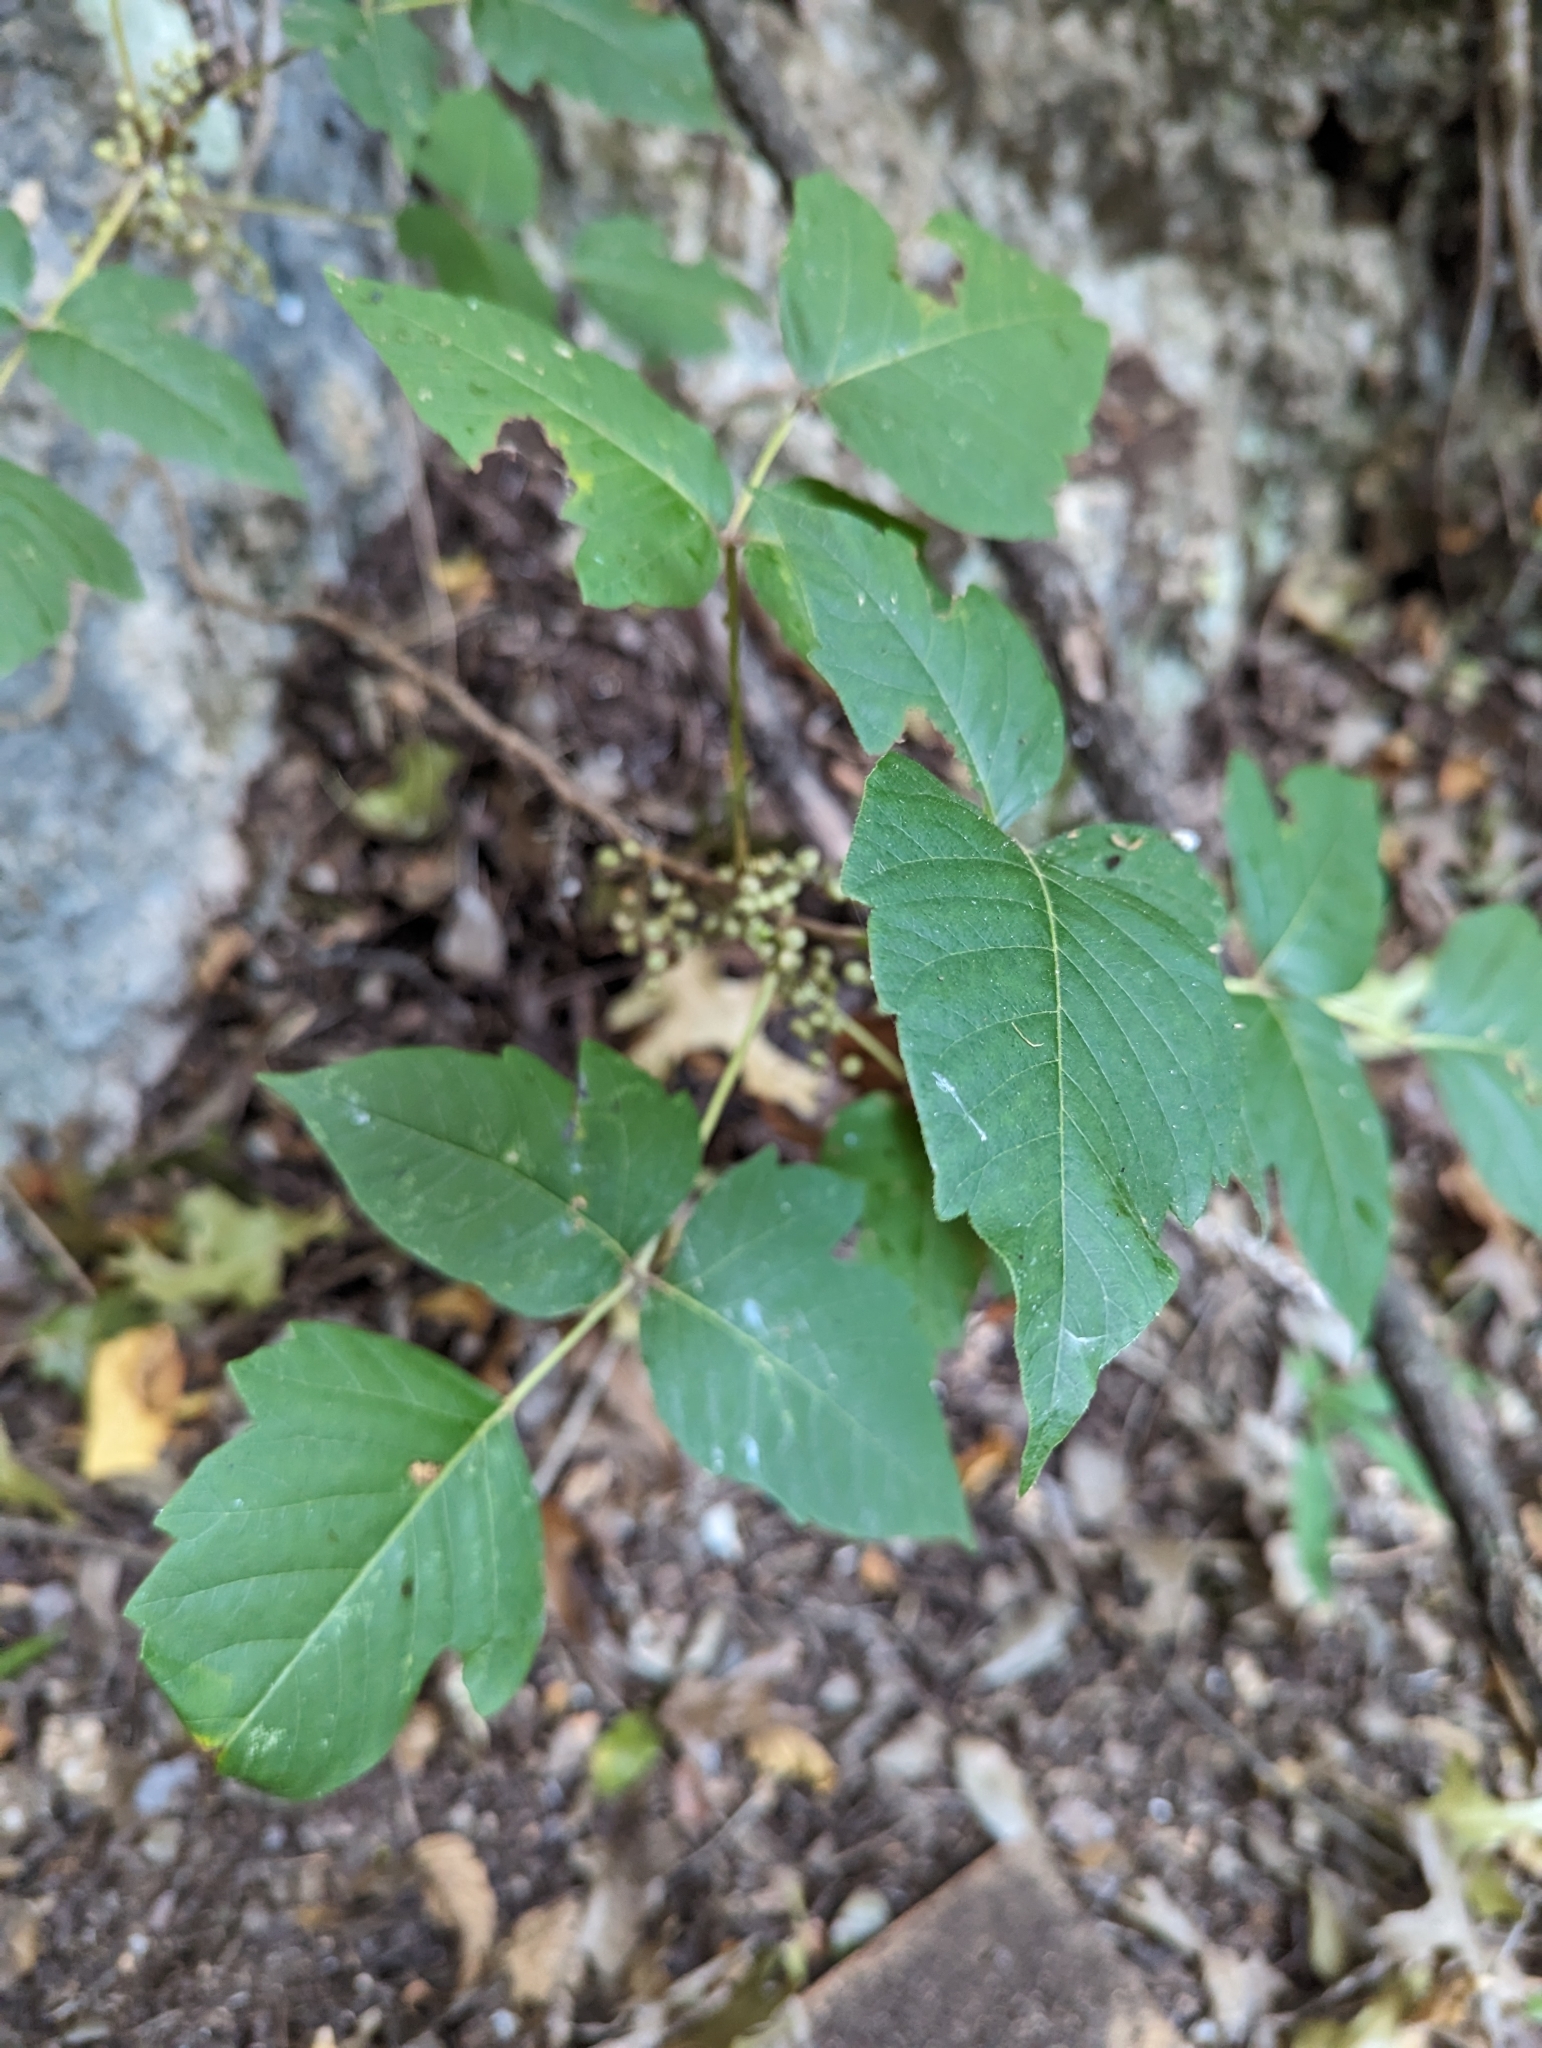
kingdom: Plantae
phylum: Tracheophyta
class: Magnoliopsida
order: Sapindales
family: Anacardiaceae
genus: Toxicodendron
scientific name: Toxicodendron radicans
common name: Poison ivy
